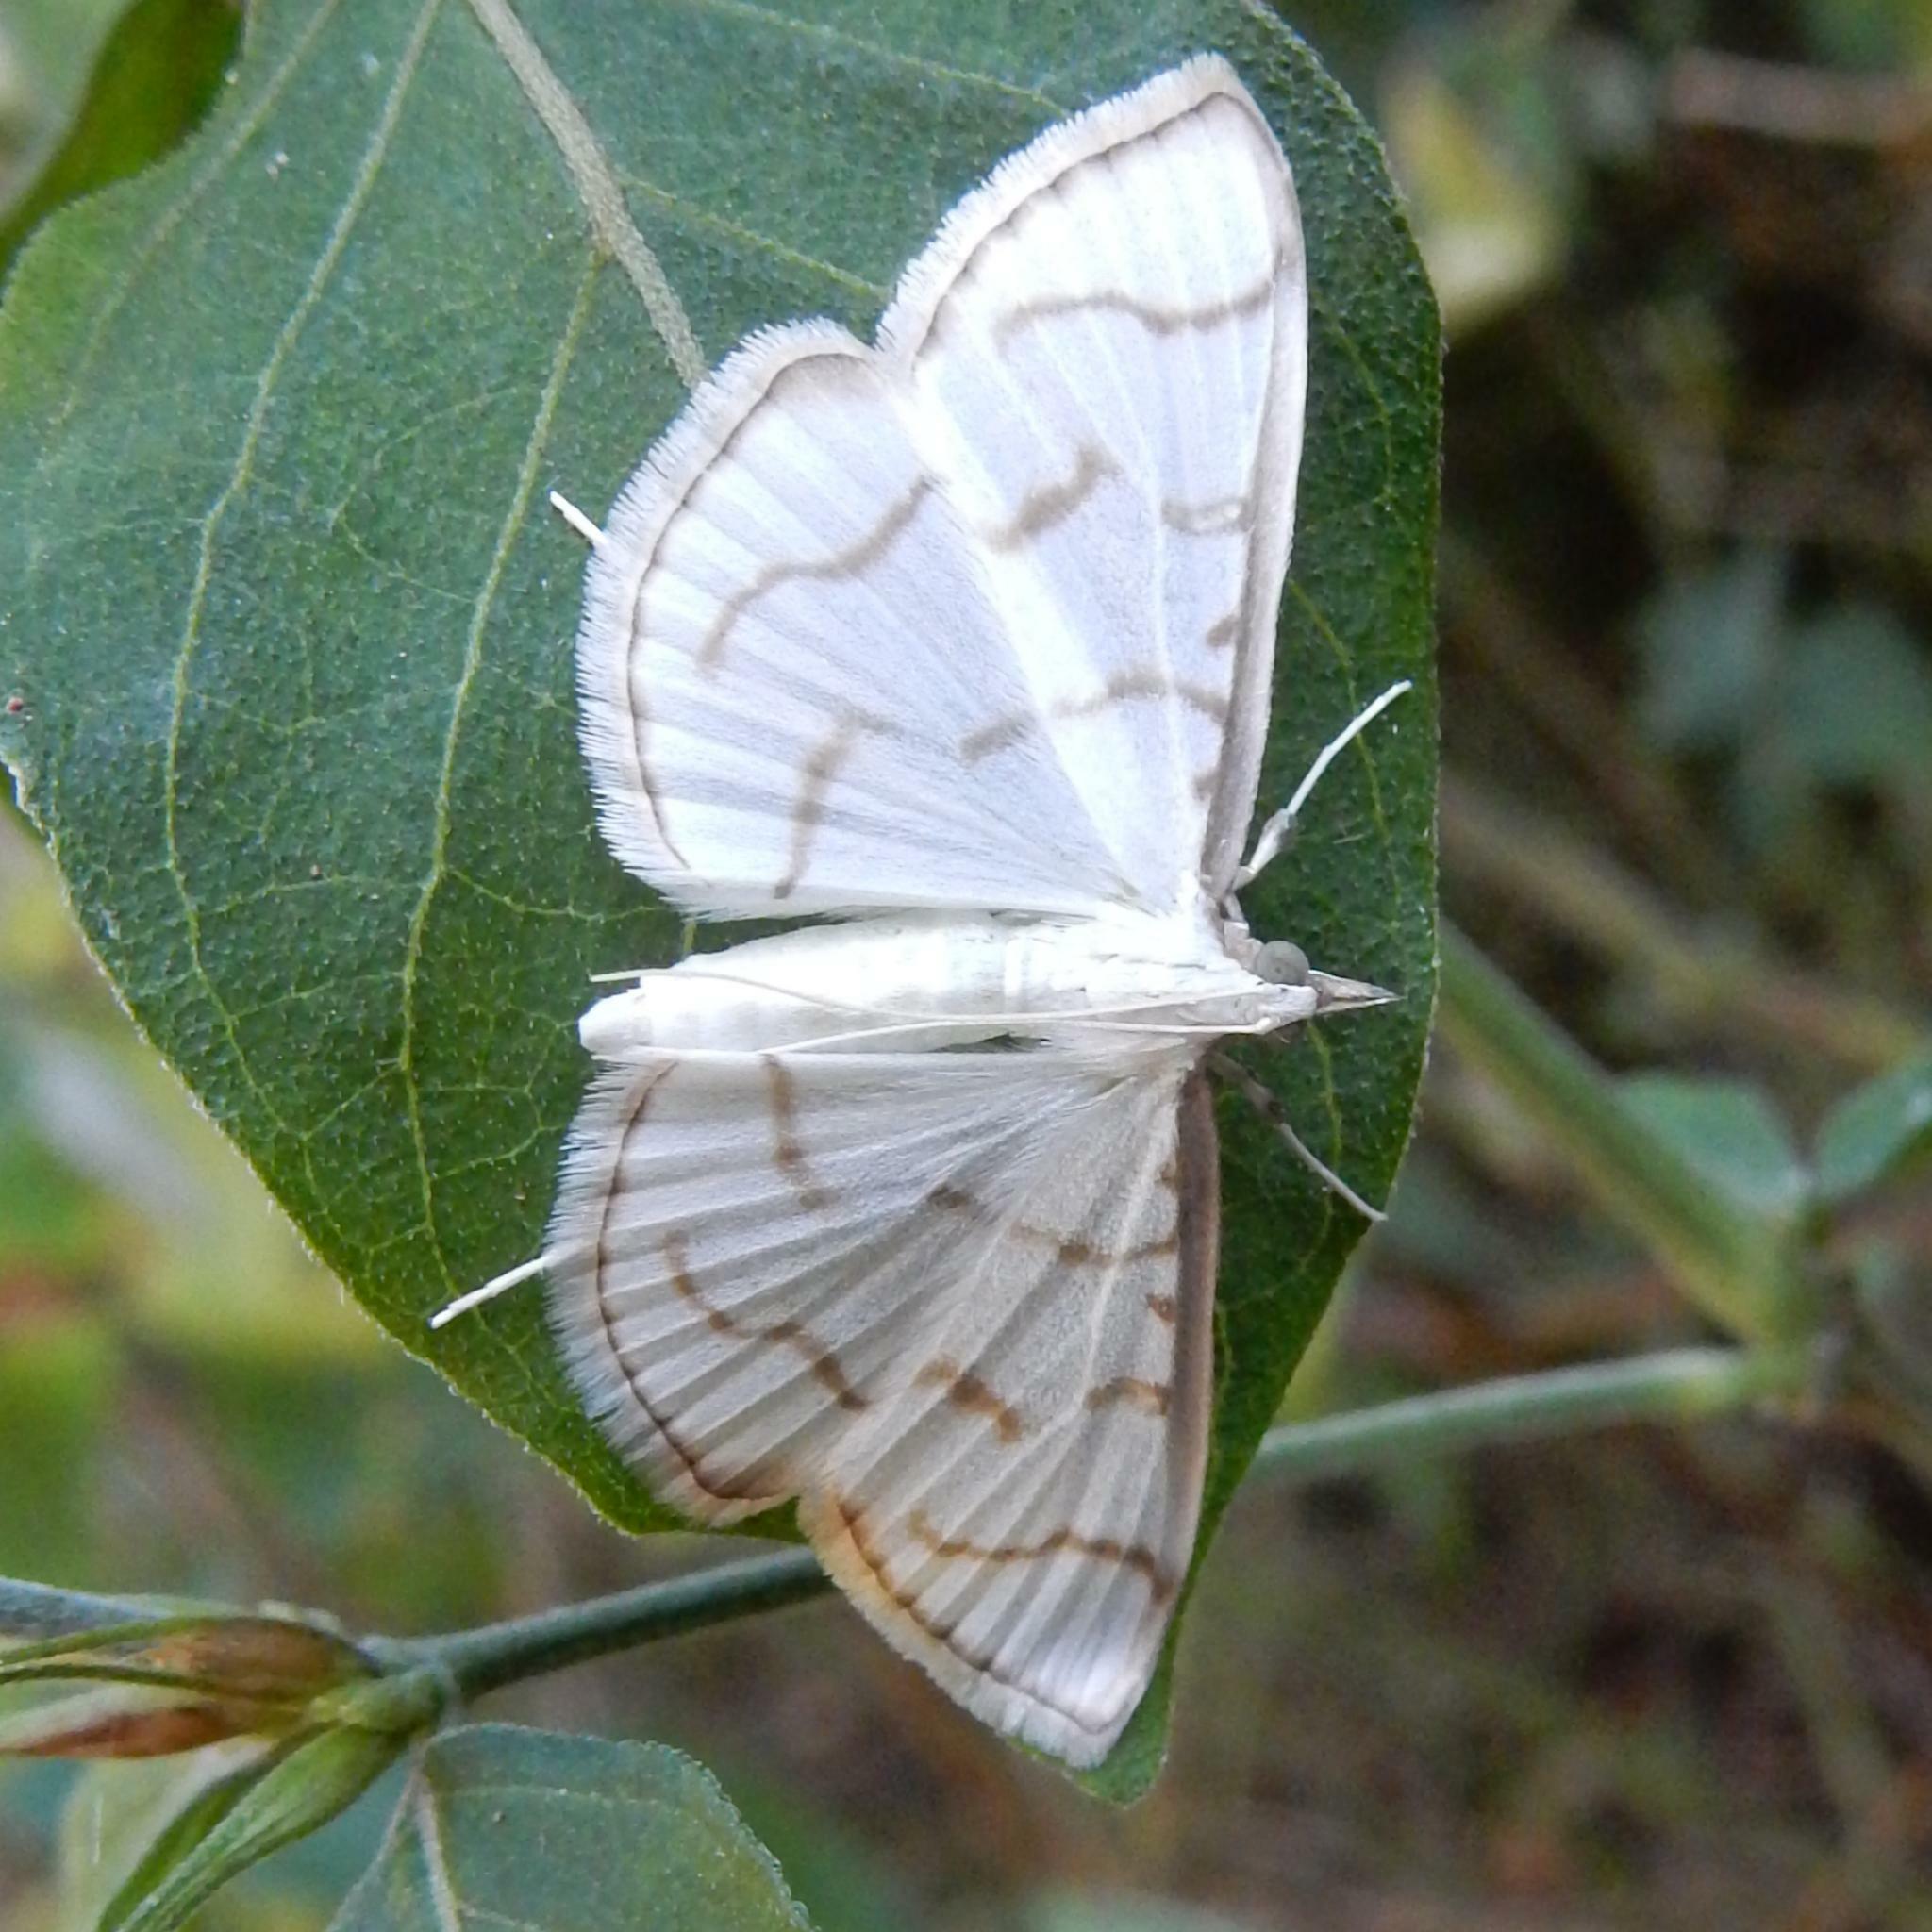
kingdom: Animalia
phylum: Arthropoda
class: Insecta
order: Lepidoptera
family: Crambidae
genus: Antigastra
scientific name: Antigastra morysalis
